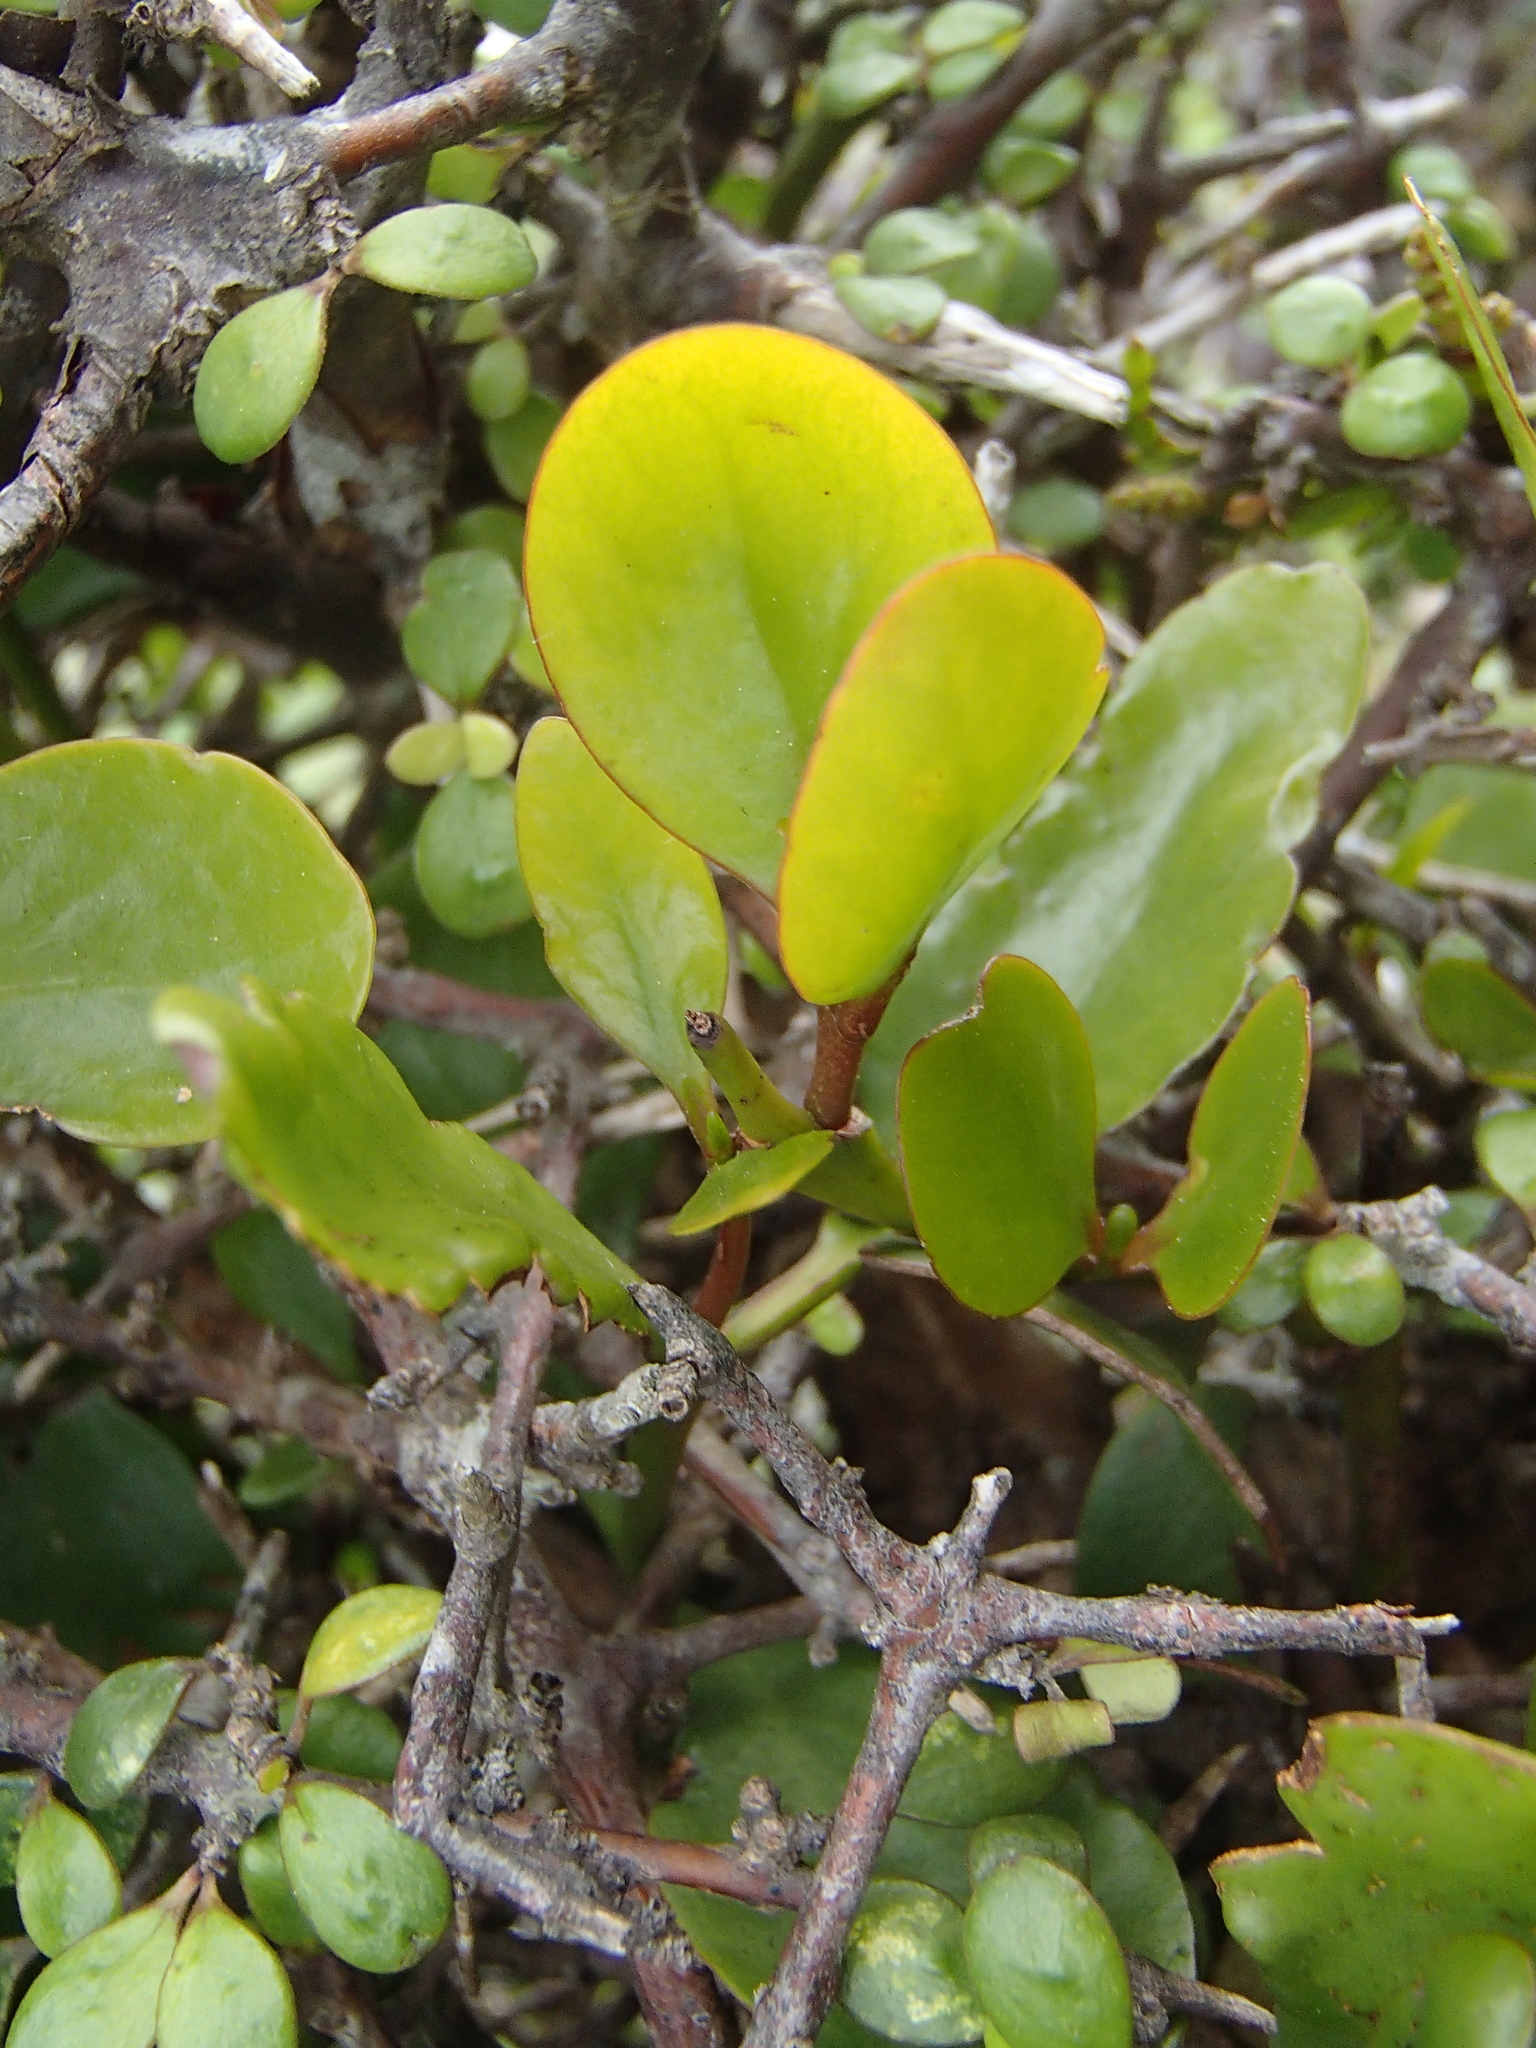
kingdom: Plantae
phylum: Tracheophyta
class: Magnoliopsida
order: Santalales
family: Loranthaceae
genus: Ileostylus
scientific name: Ileostylus micranthus
